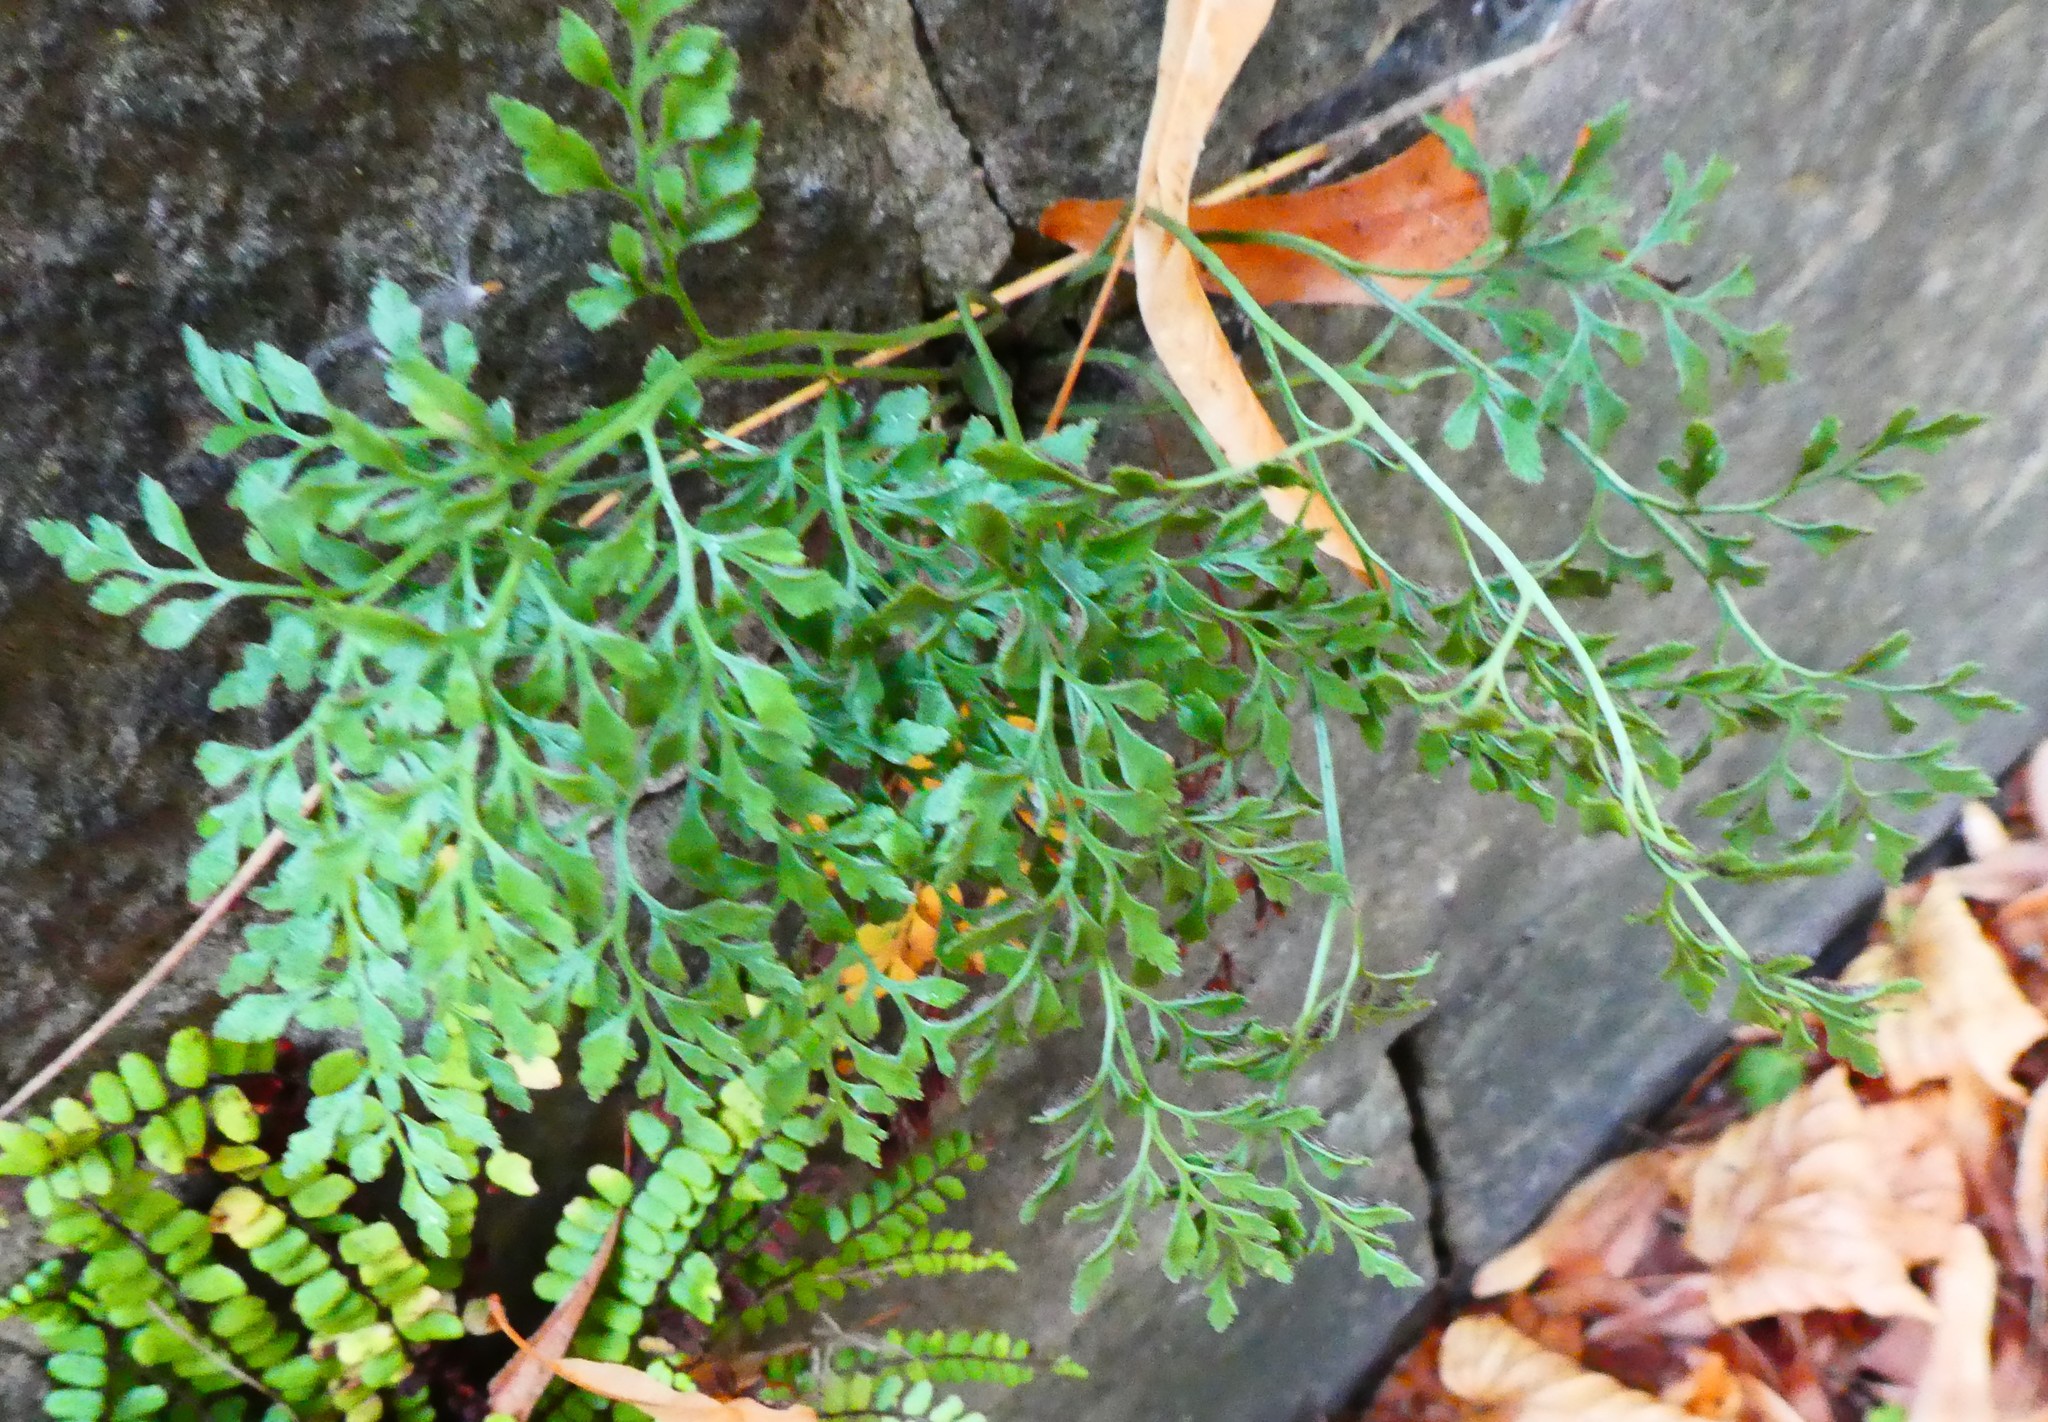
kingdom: Plantae
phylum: Tracheophyta
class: Polypodiopsida
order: Polypodiales
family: Aspleniaceae
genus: Asplenium
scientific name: Asplenium ruta-muraria
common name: Wall-rue
